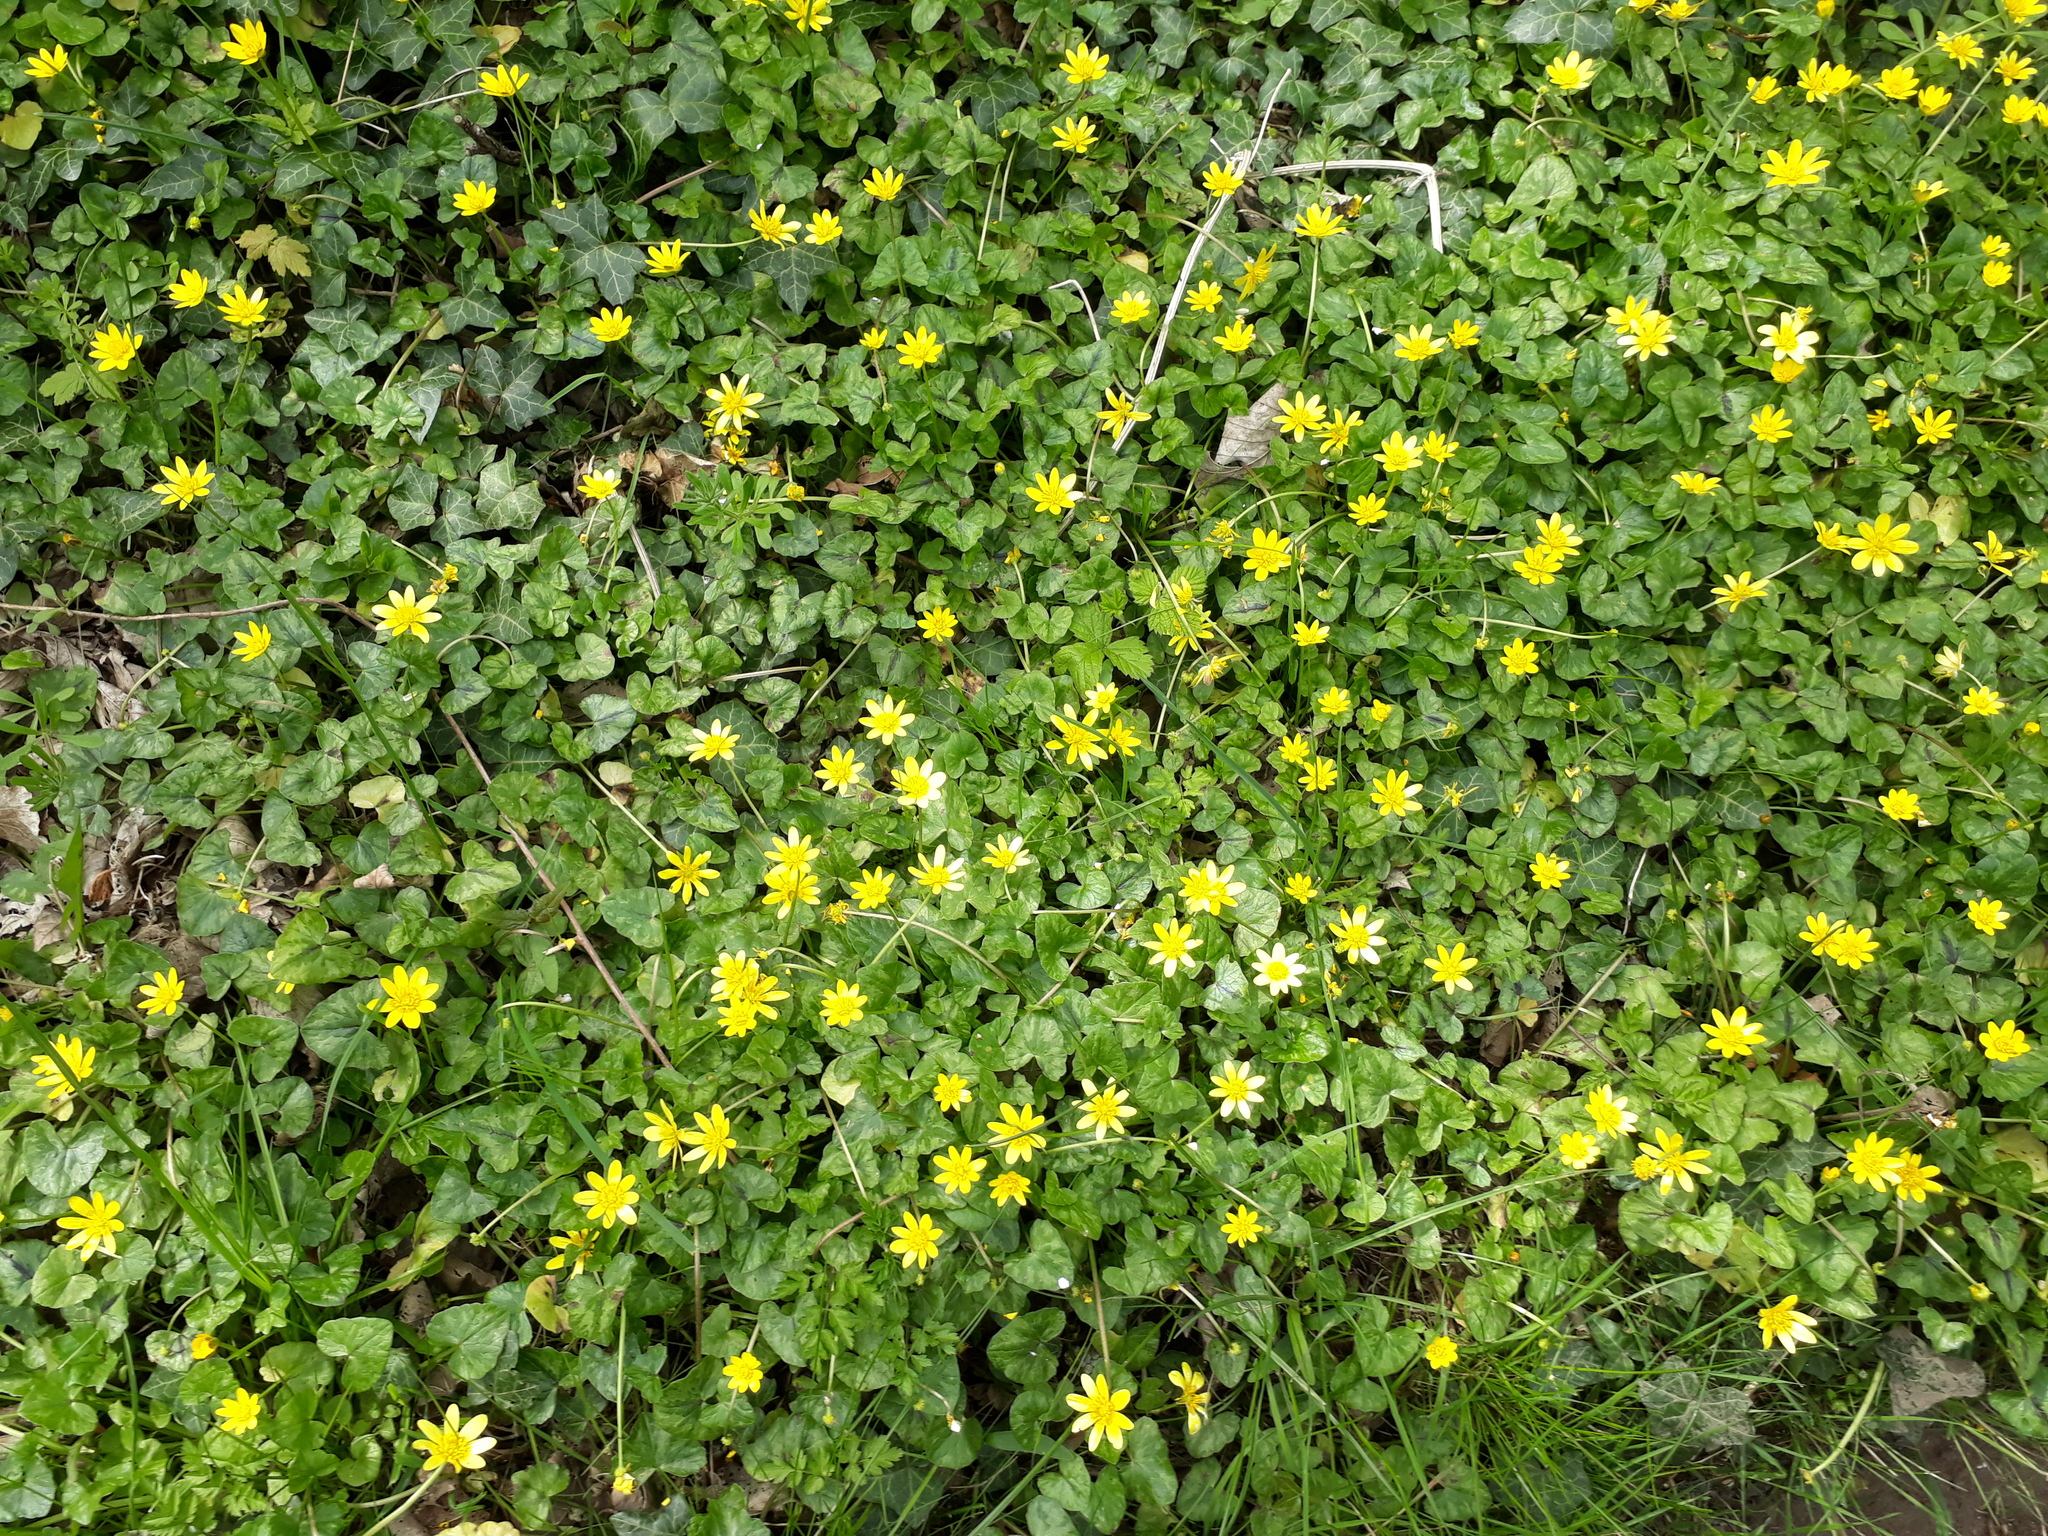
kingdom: Plantae
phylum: Tracheophyta
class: Magnoliopsida
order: Ranunculales
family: Ranunculaceae
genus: Ficaria
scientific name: Ficaria verna
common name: Lesser celandine
